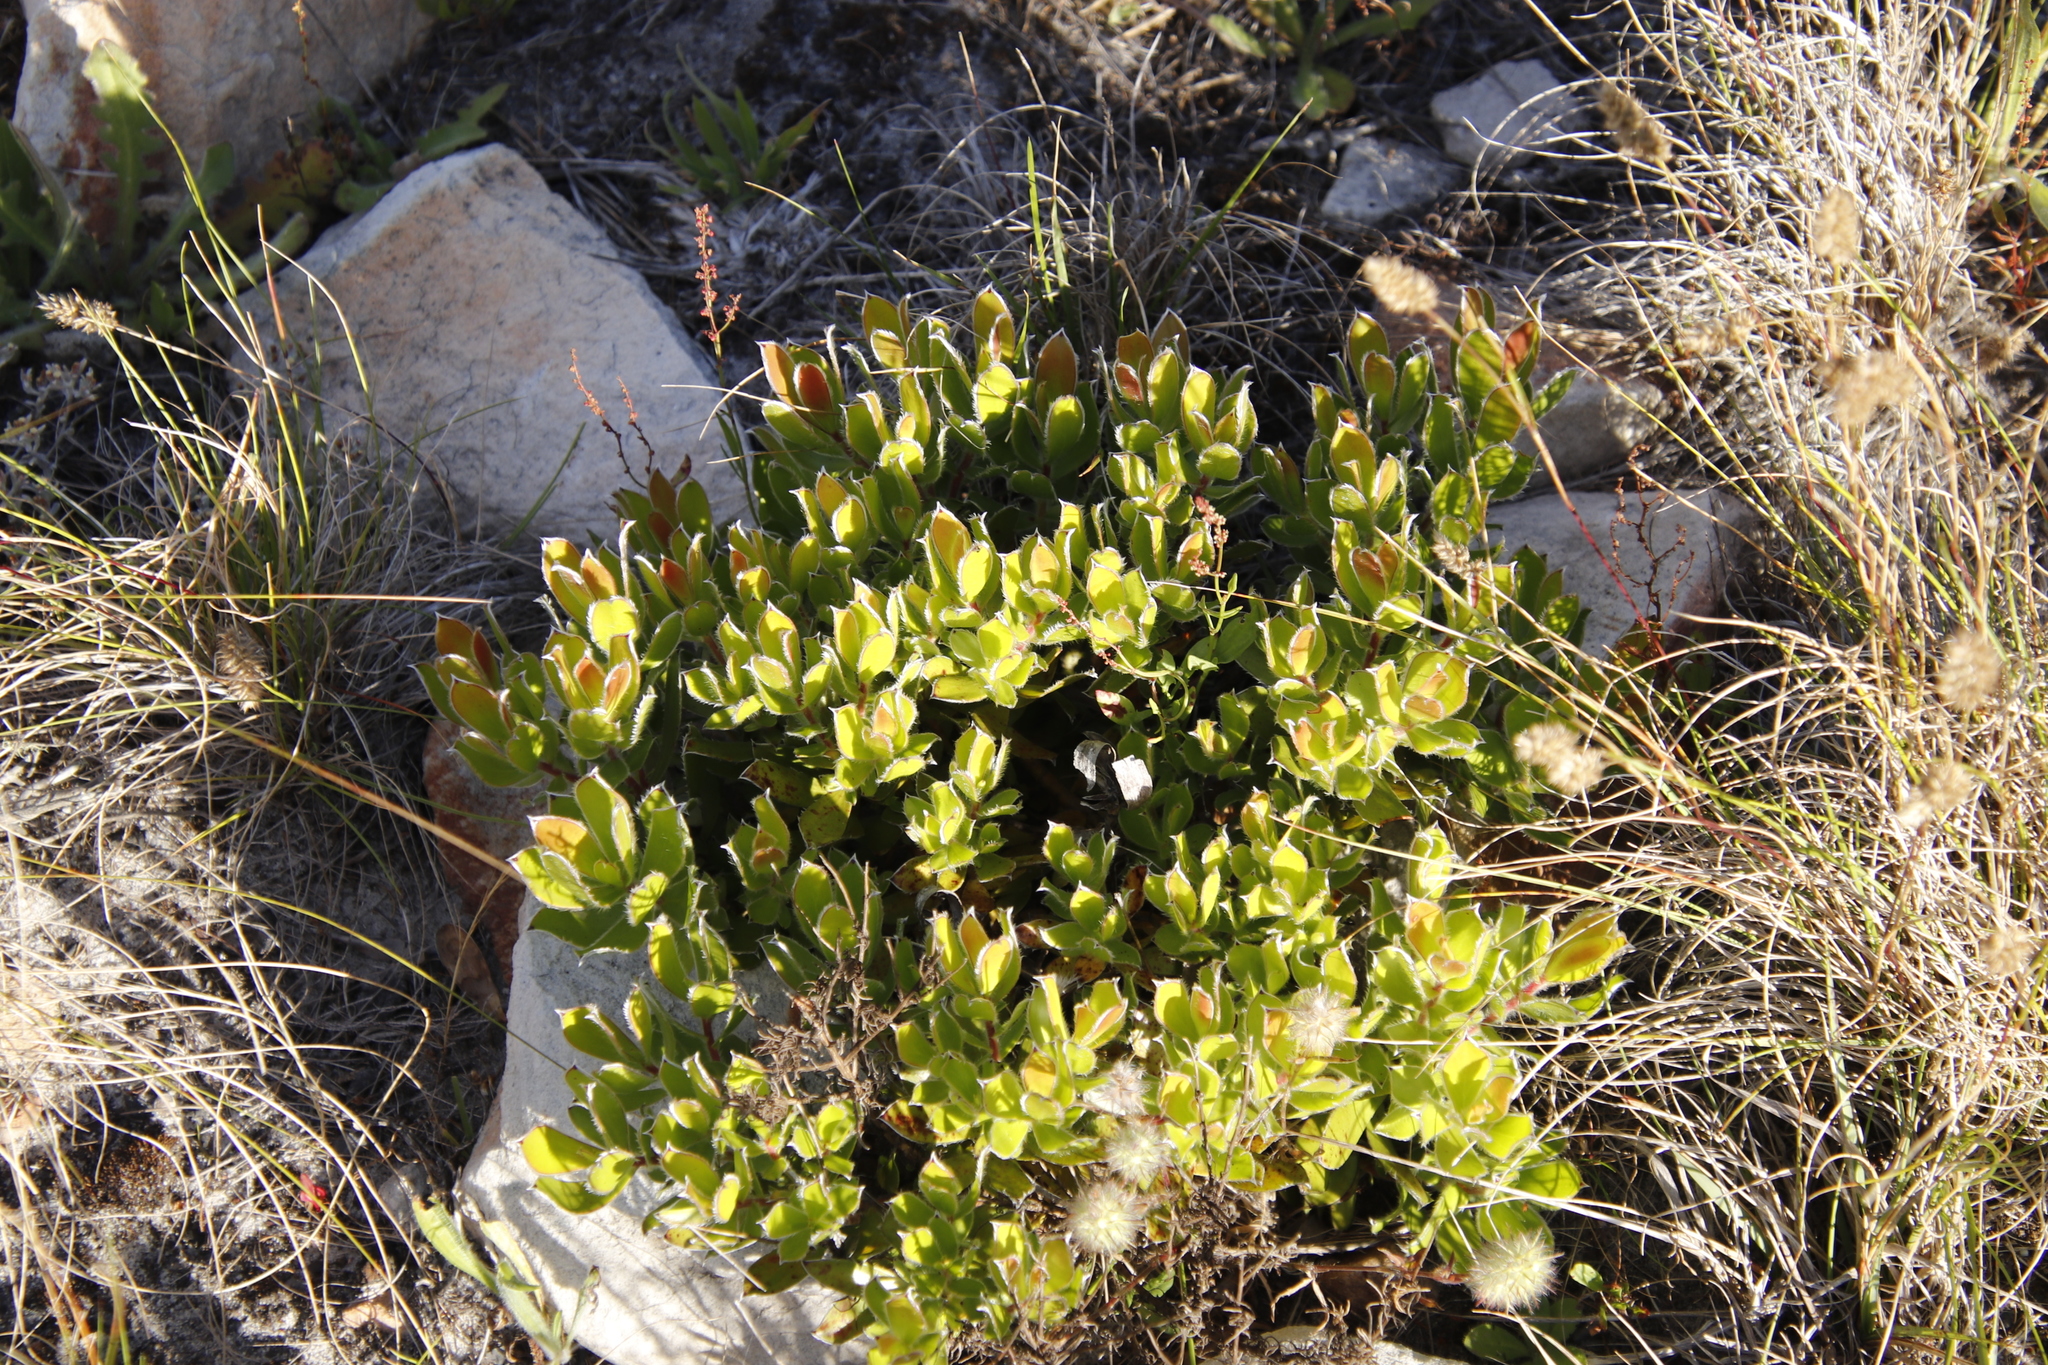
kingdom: Plantae
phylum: Tracheophyta
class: Magnoliopsida
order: Proteales
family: Proteaceae
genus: Leucadendron
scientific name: Leucadendron strobilinum
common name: Mountain rose
